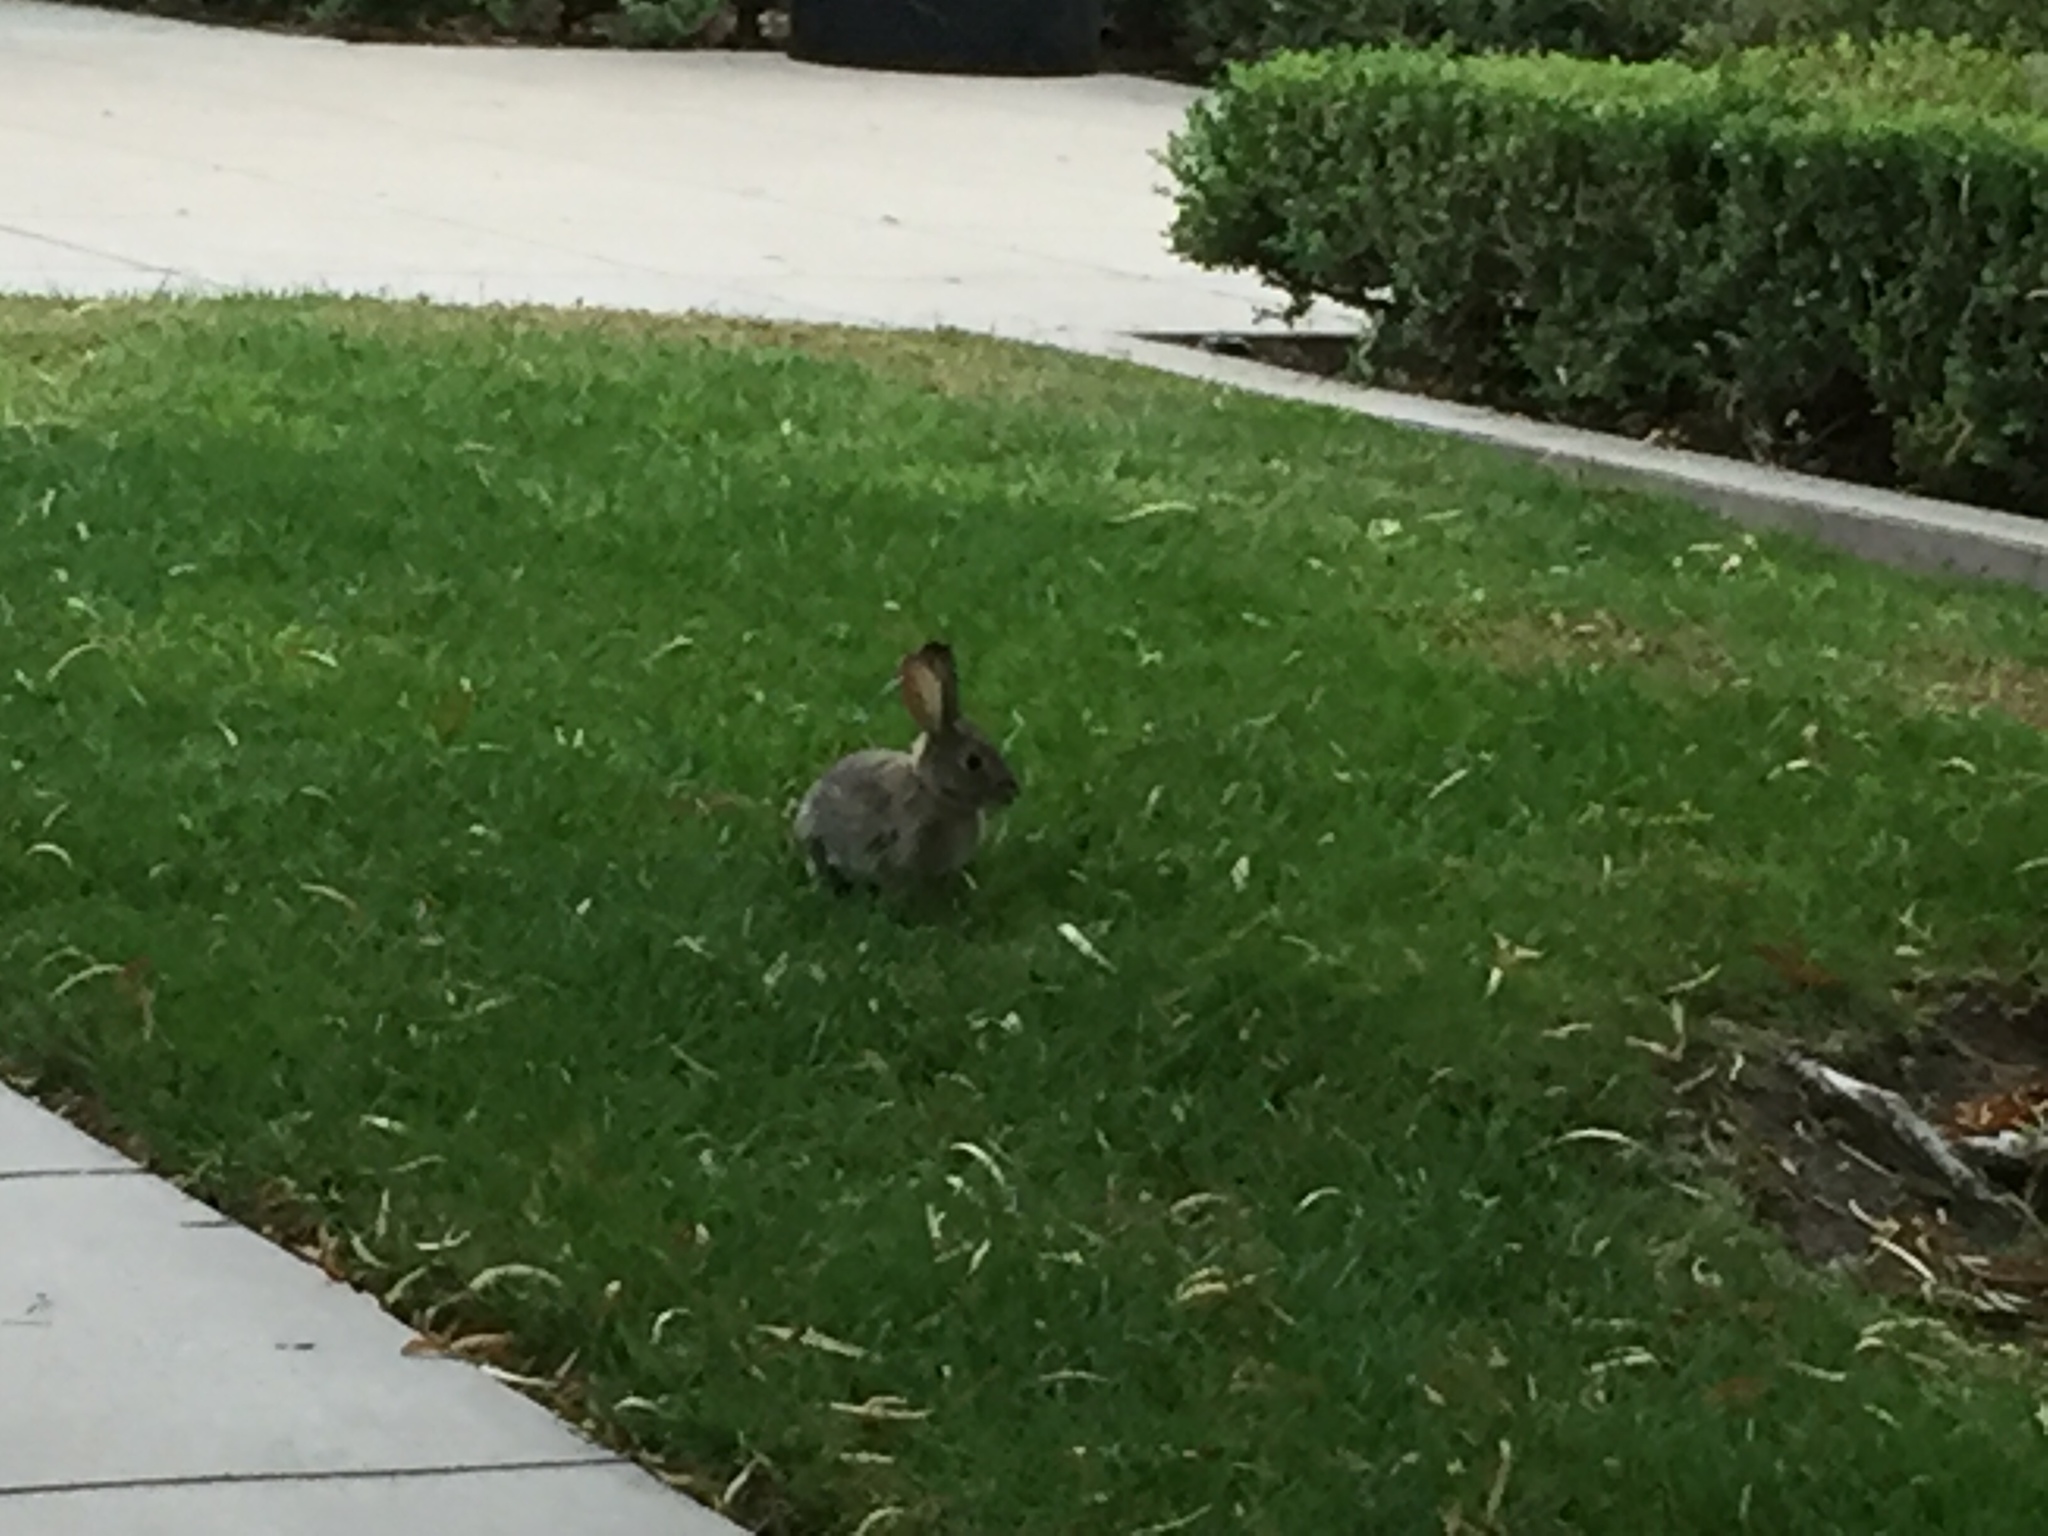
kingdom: Animalia
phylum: Chordata
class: Mammalia
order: Lagomorpha
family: Leporidae
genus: Sylvilagus
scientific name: Sylvilagus audubonii
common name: Desert cottontail
